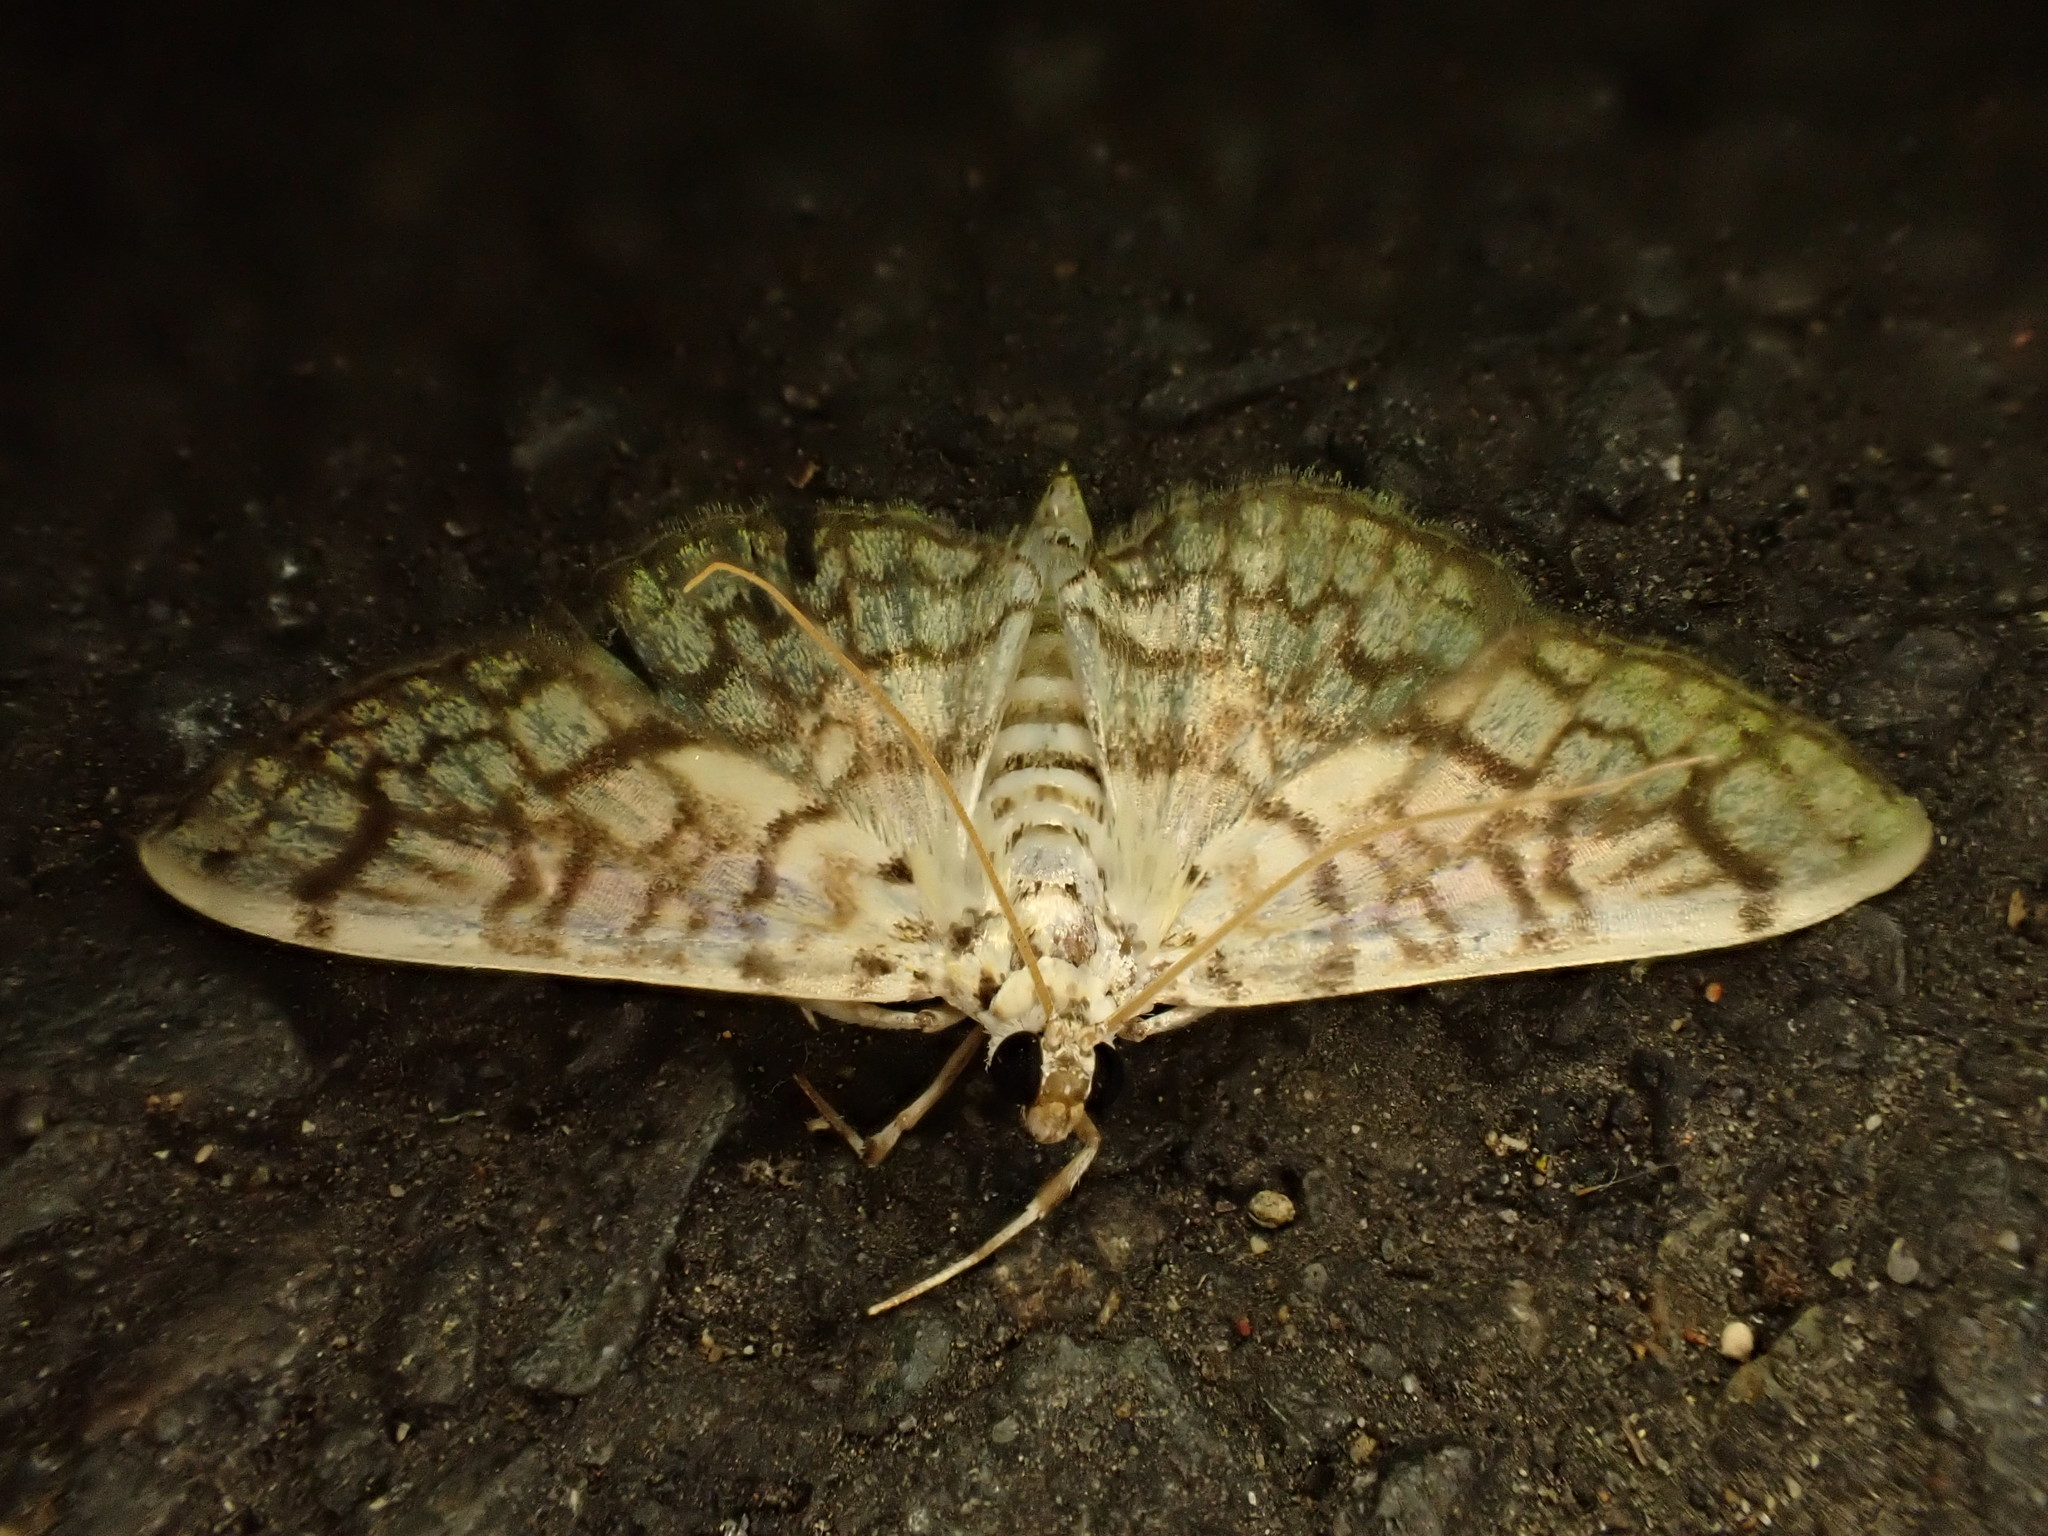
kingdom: Animalia
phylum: Arthropoda
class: Insecta
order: Lepidoptera
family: Crambidae
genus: Haritalodes
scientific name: Haritalodes derogata
